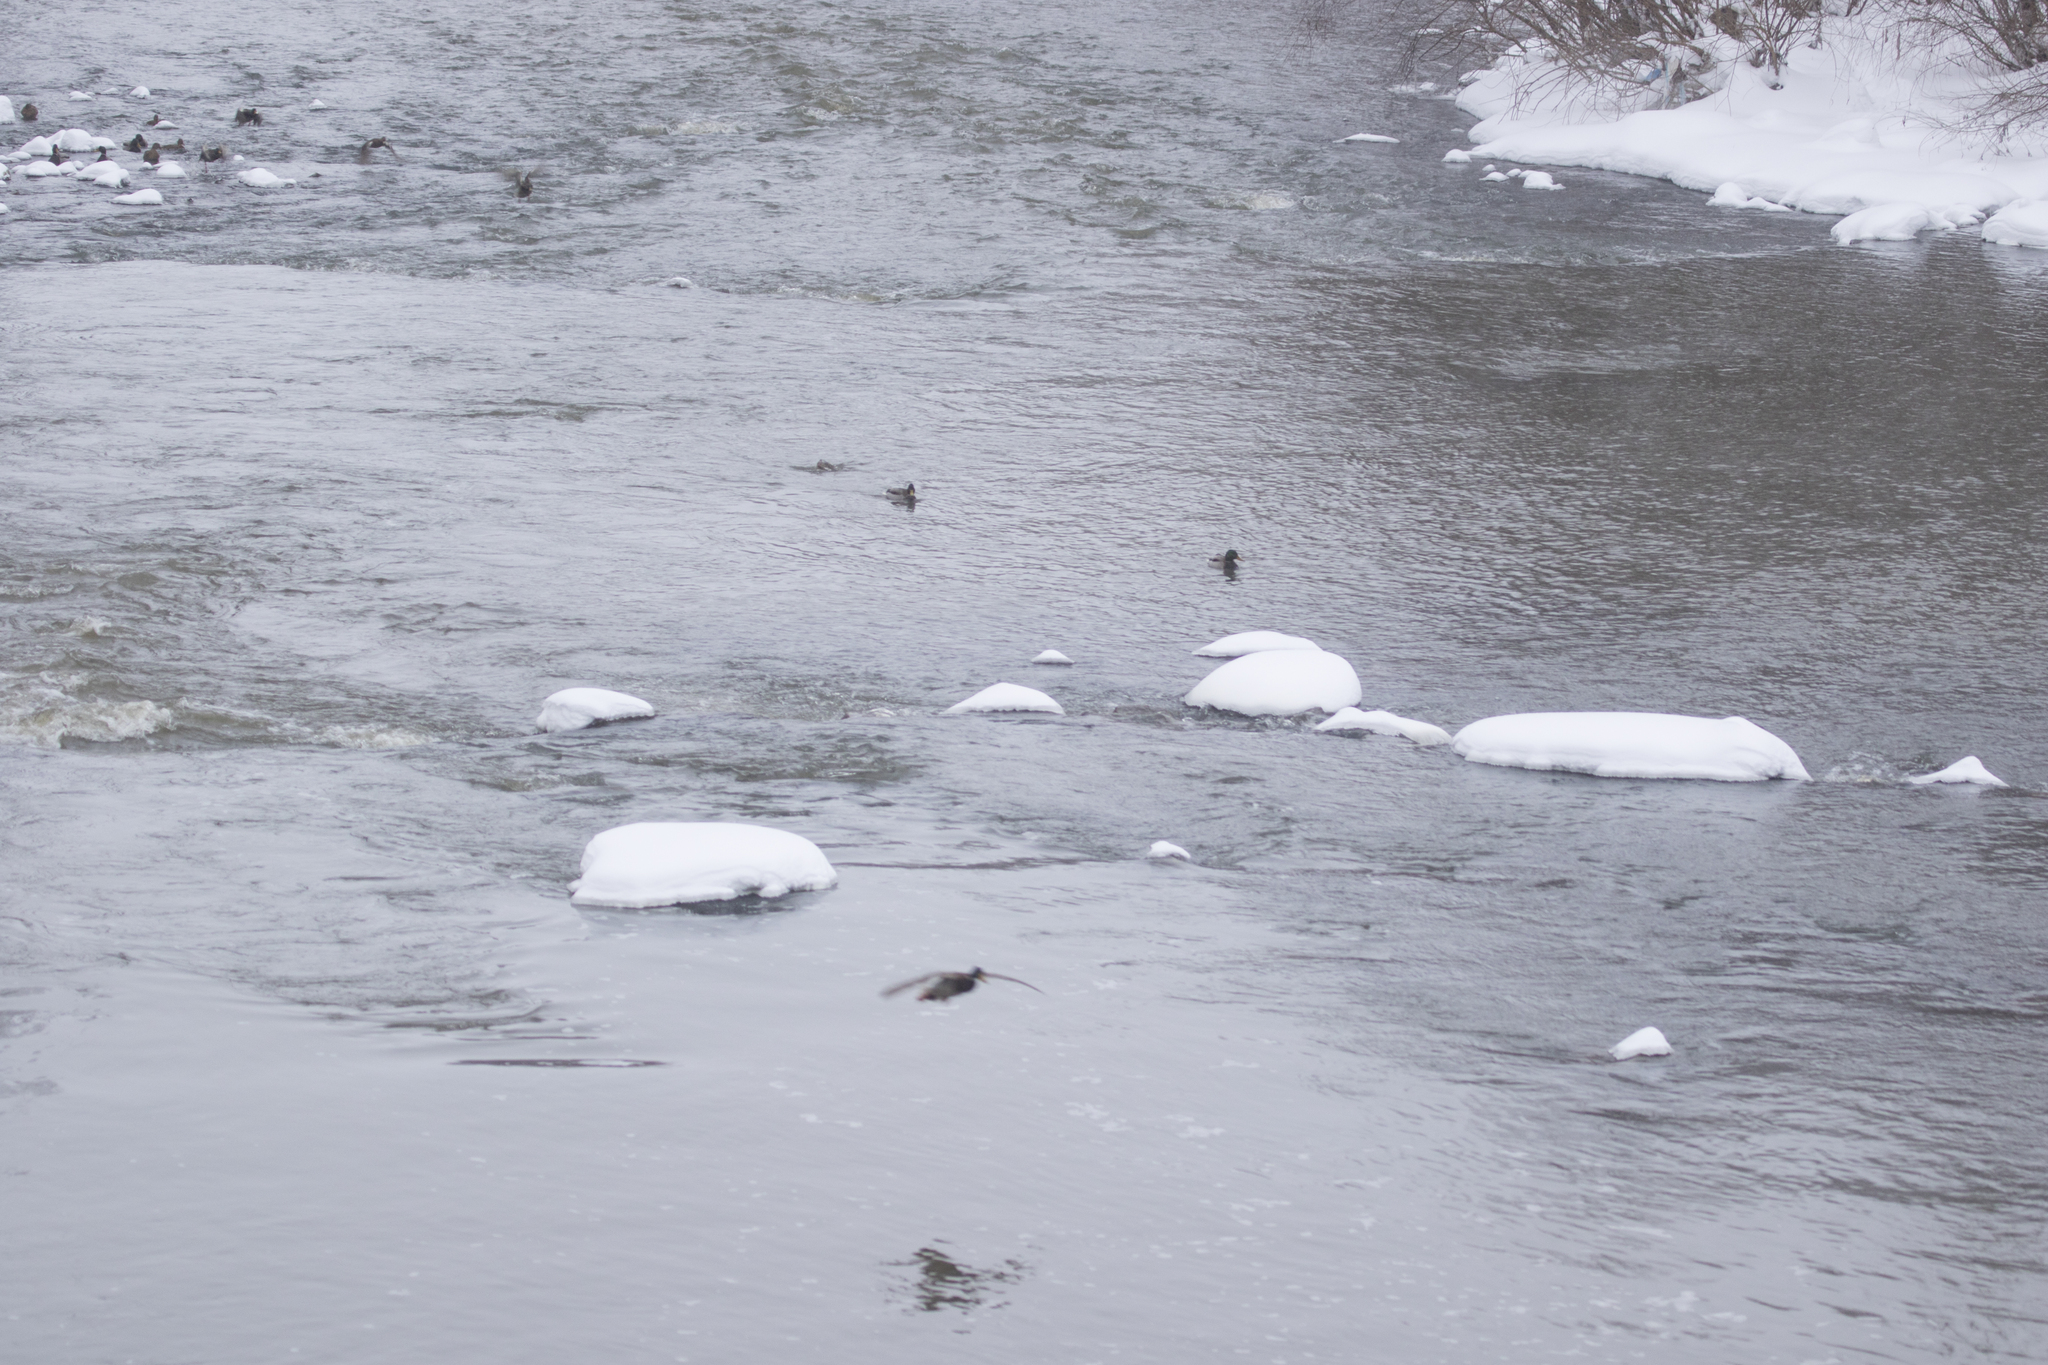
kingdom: Animalia
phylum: Chordata
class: Aves
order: Anseriformes
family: Anatidae
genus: Anas
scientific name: Anas platyrhynchos
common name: Mallard
